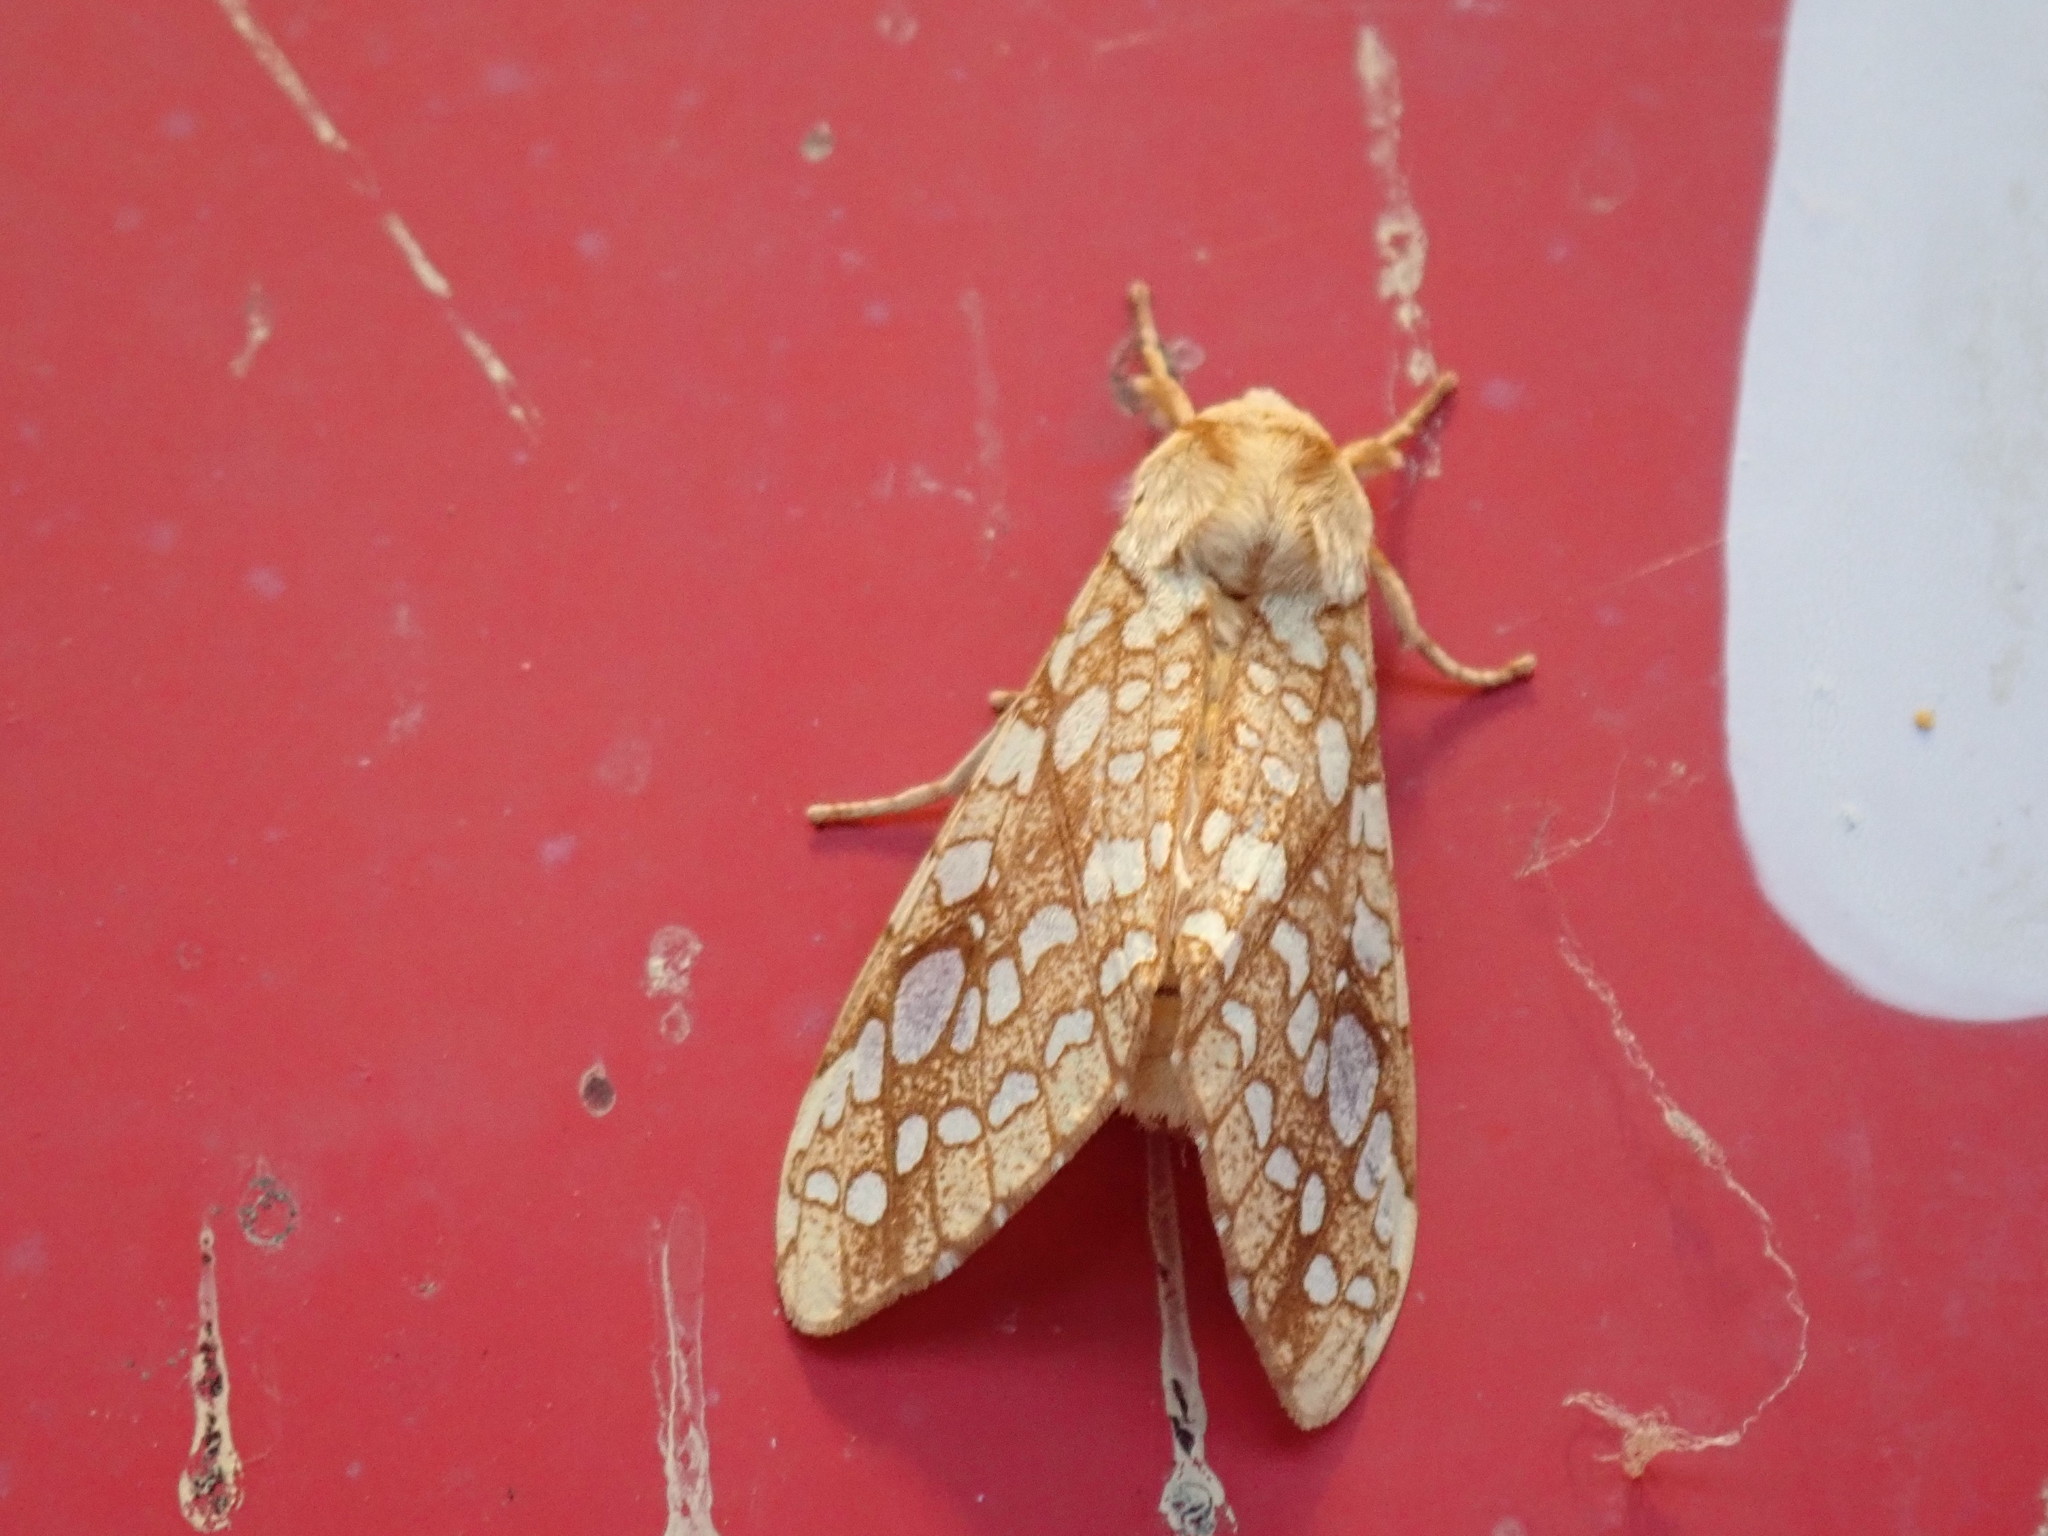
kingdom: Animalia
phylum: Arthropoda
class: Insecta
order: Lepidoptera
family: Erebidae
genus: Lophocampa
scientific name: Lophocampa caryae
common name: Hickory tussock moth
